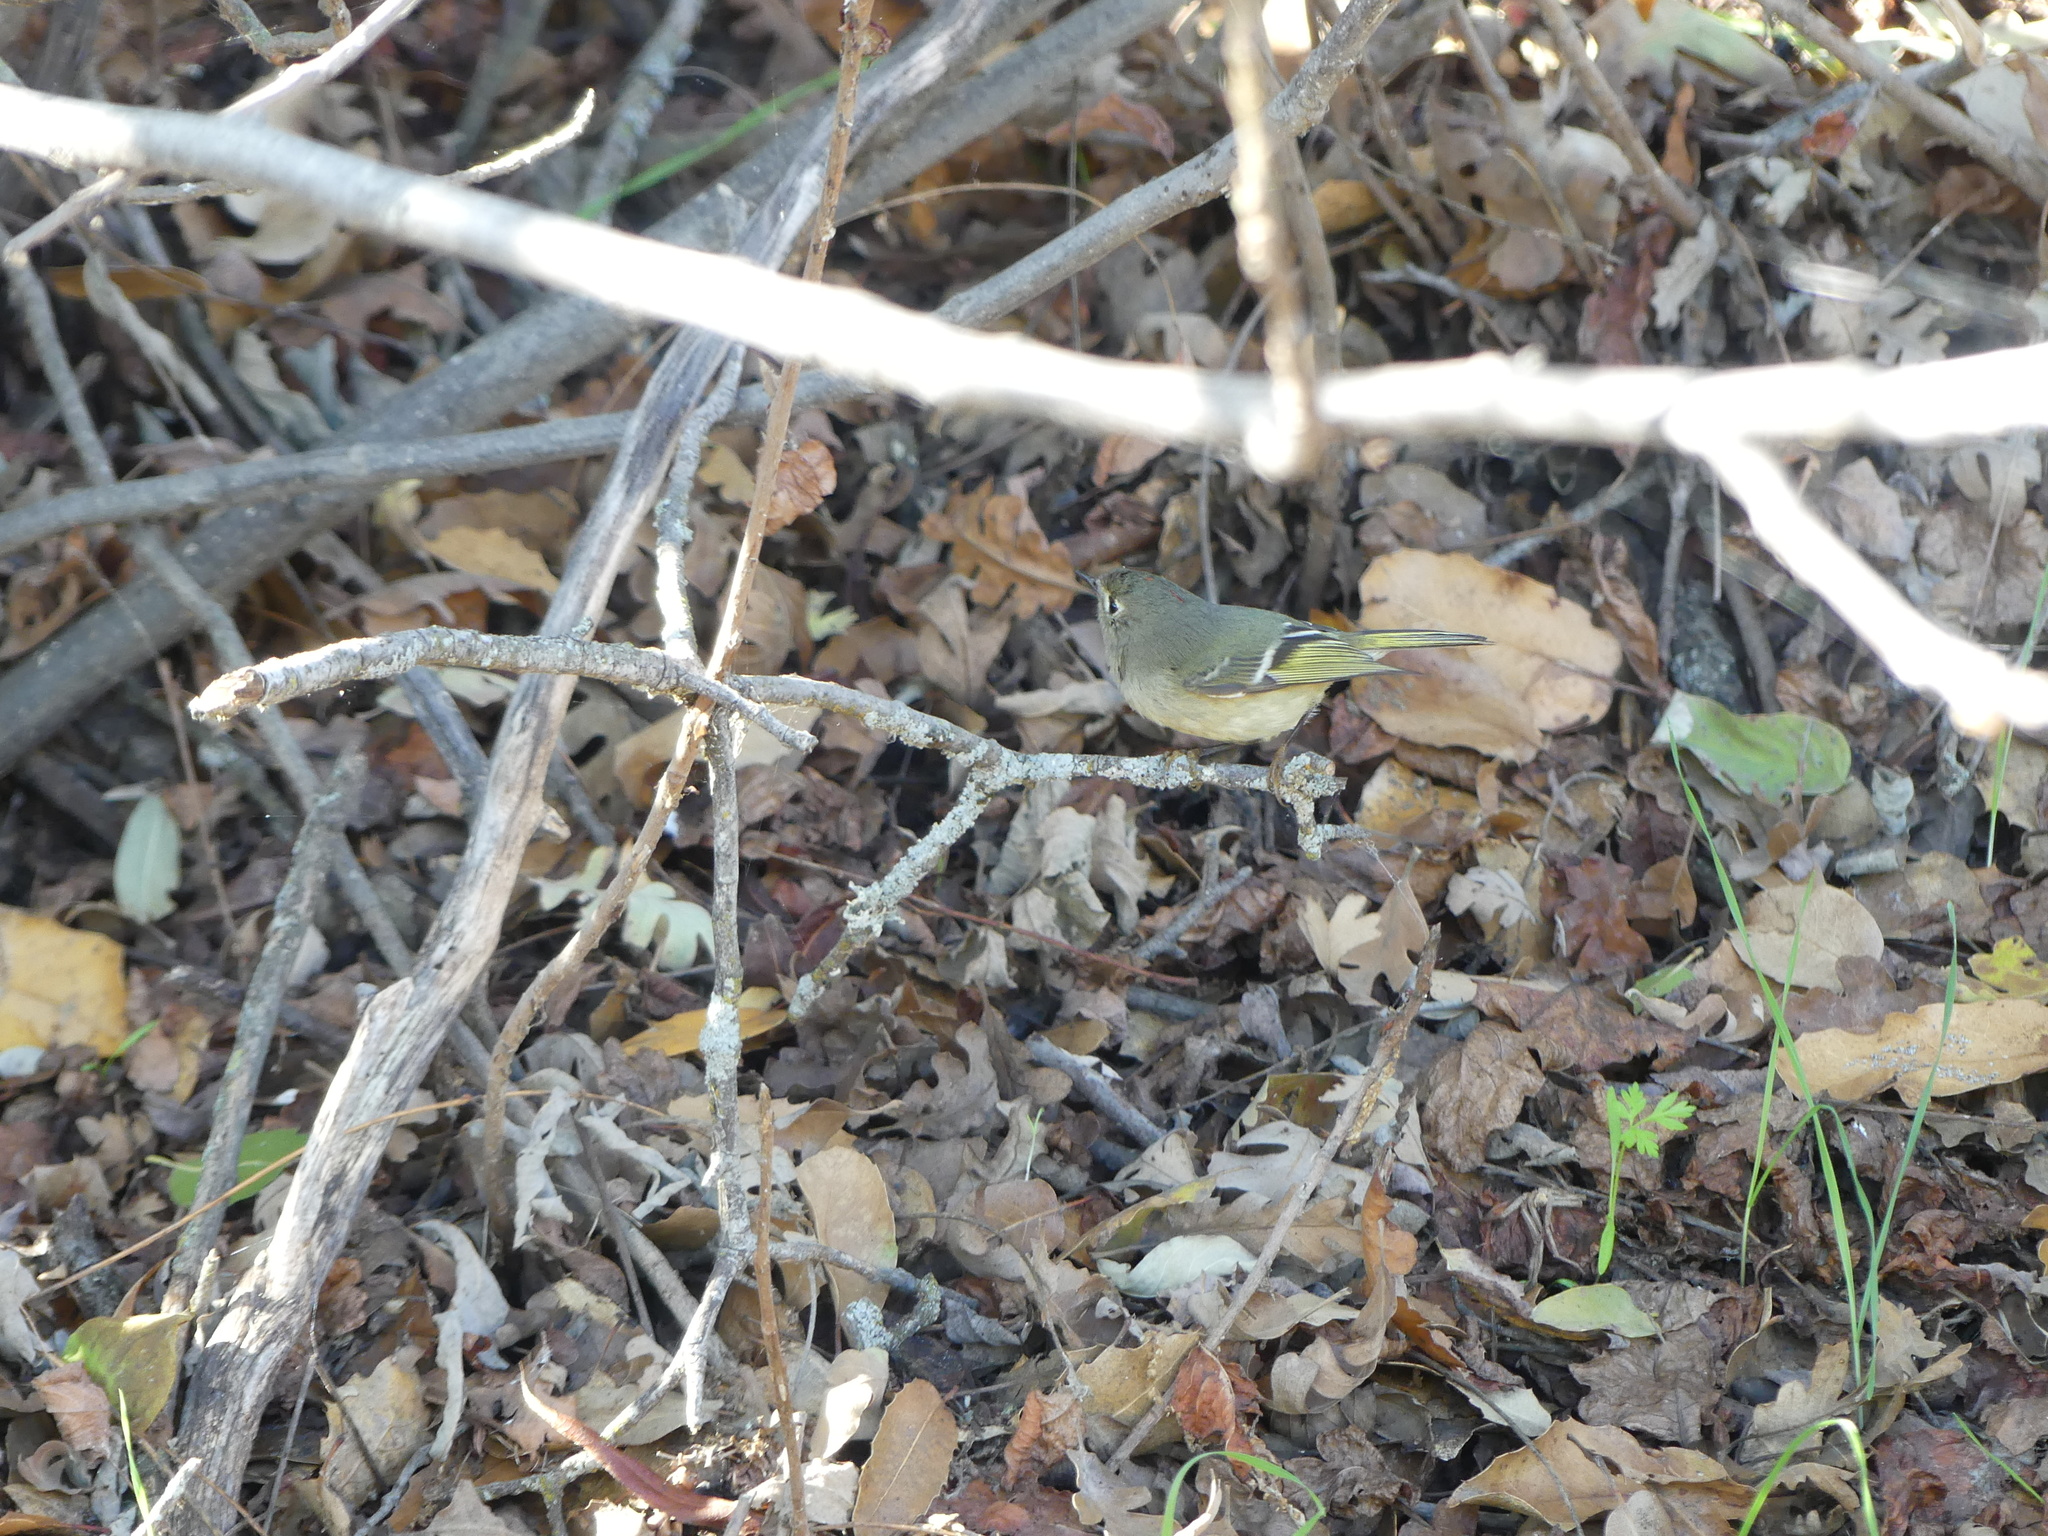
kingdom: Animalia
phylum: Chordata
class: Aves
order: Passeriformes
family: Regulidae
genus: Regulus
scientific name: Regulus calendula
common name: Ruby-crowned kinglet
